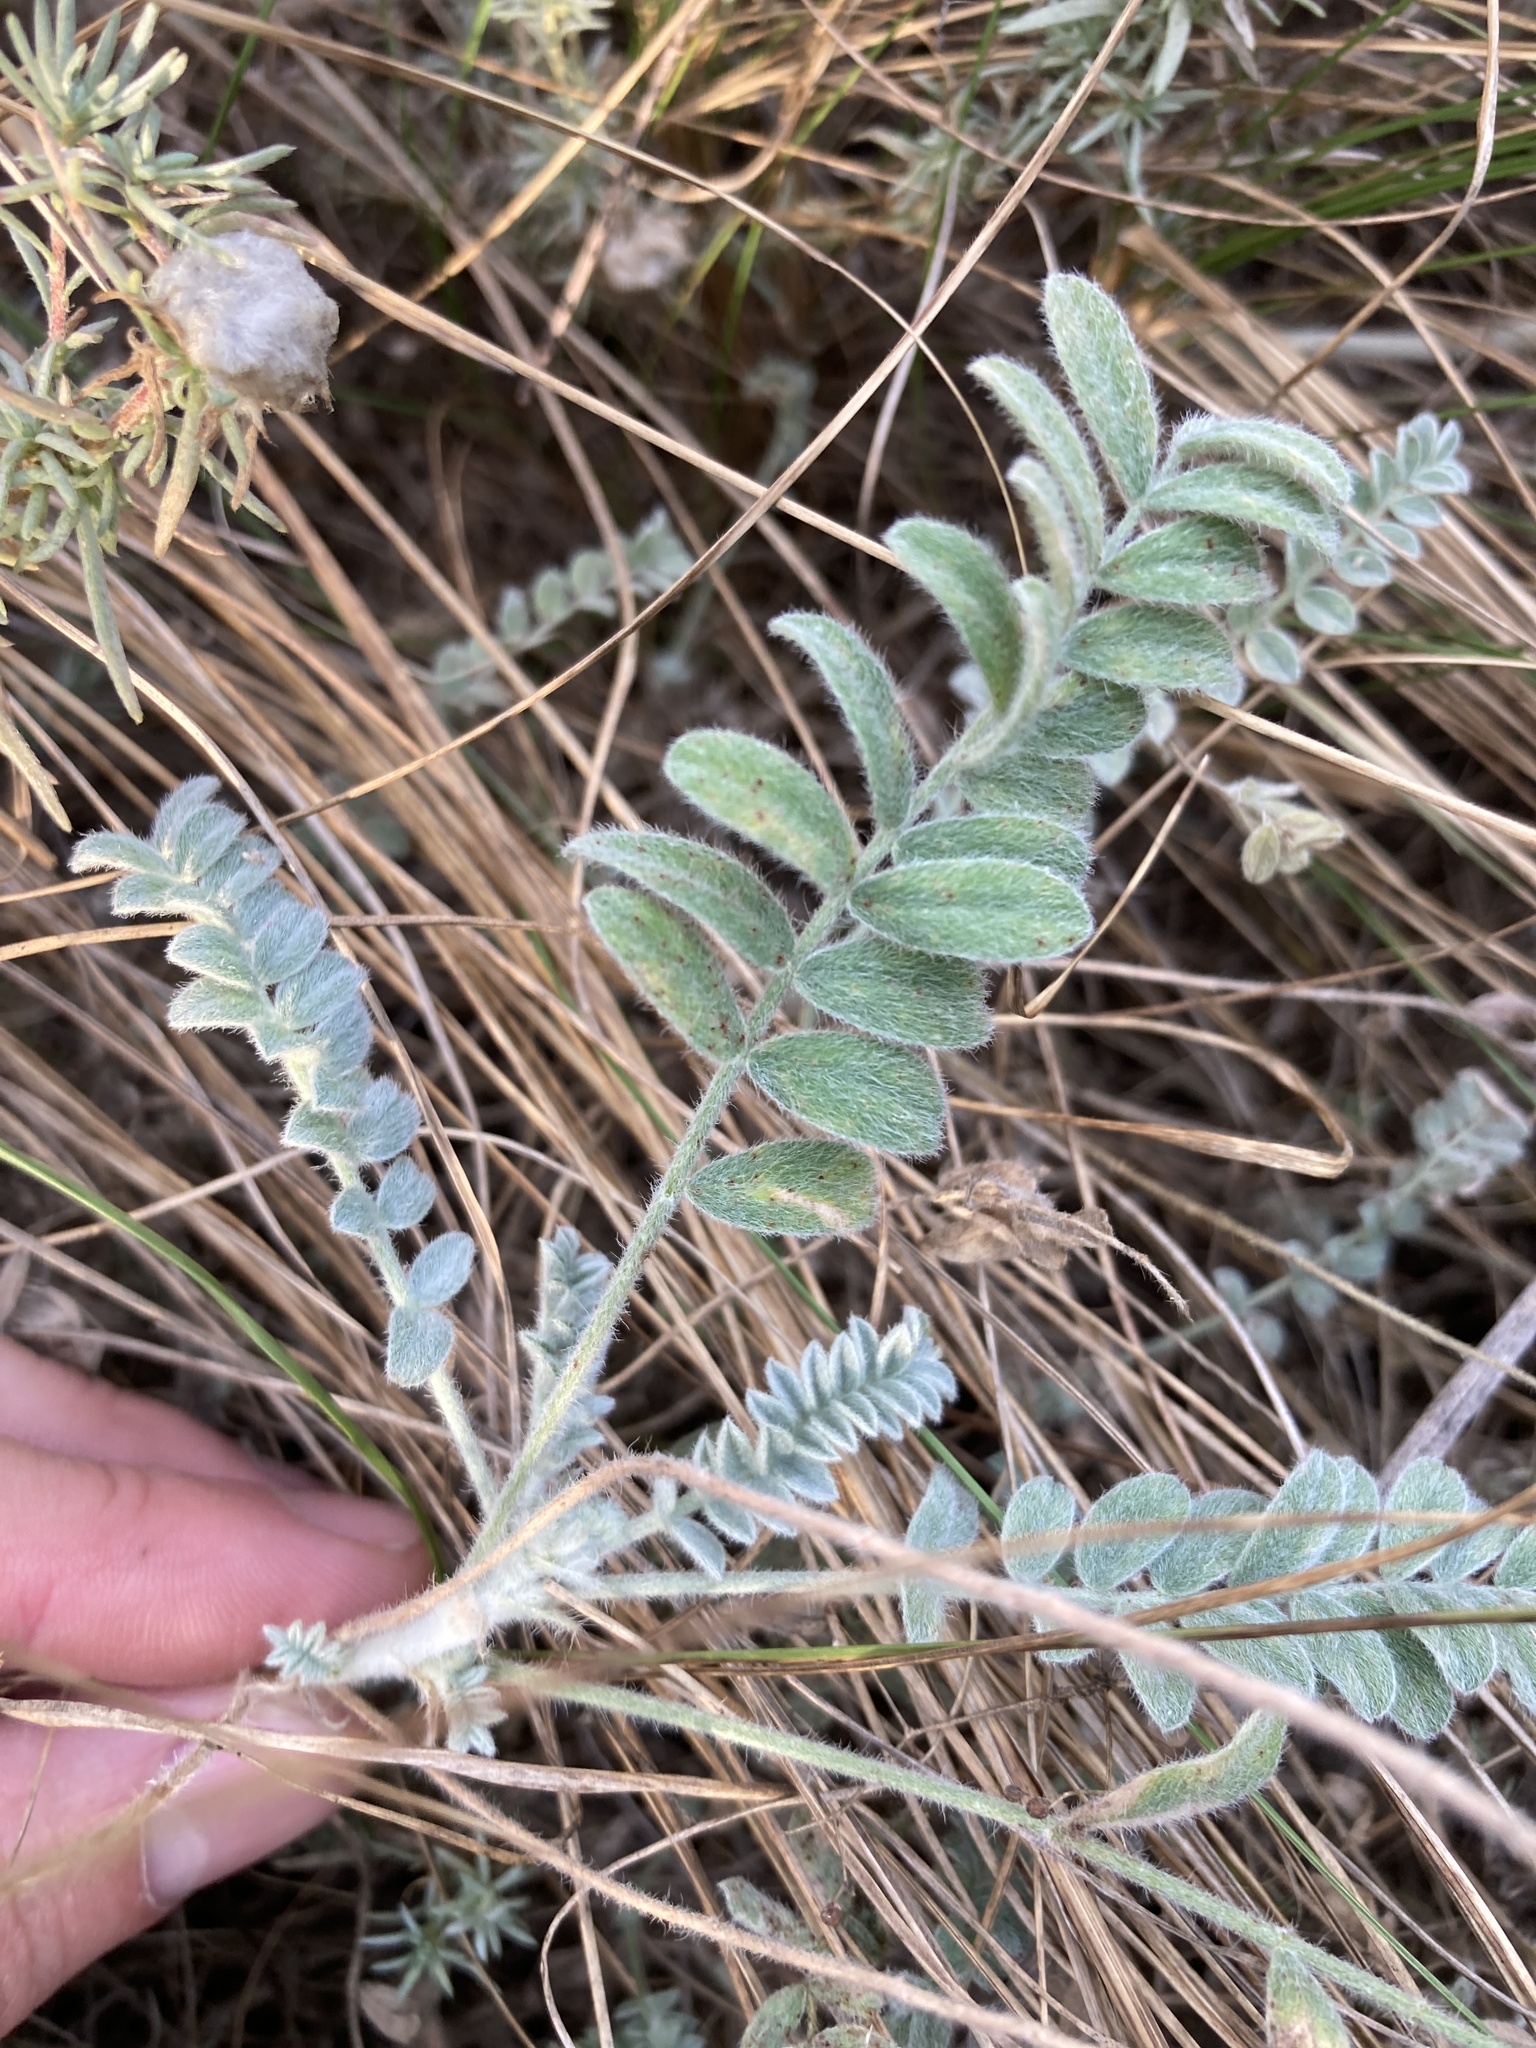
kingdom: Plantae
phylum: Tracheophyta
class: Magnoliopsida
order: Fabales
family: Fabaceae
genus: Astragalus
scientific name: Astragalus testiculatus
